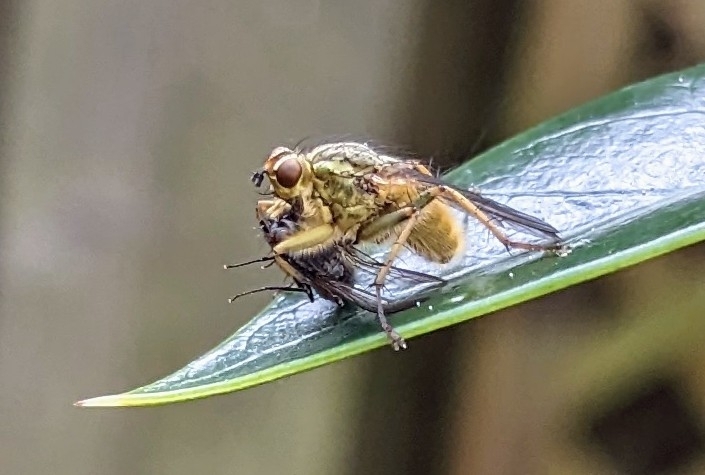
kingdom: Animalia
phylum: Arthropoda
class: Insecta
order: Diptera
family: Scathophagidae
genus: Scathophaga
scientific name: Scathophaga stercoraria
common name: Yellow dung fly
